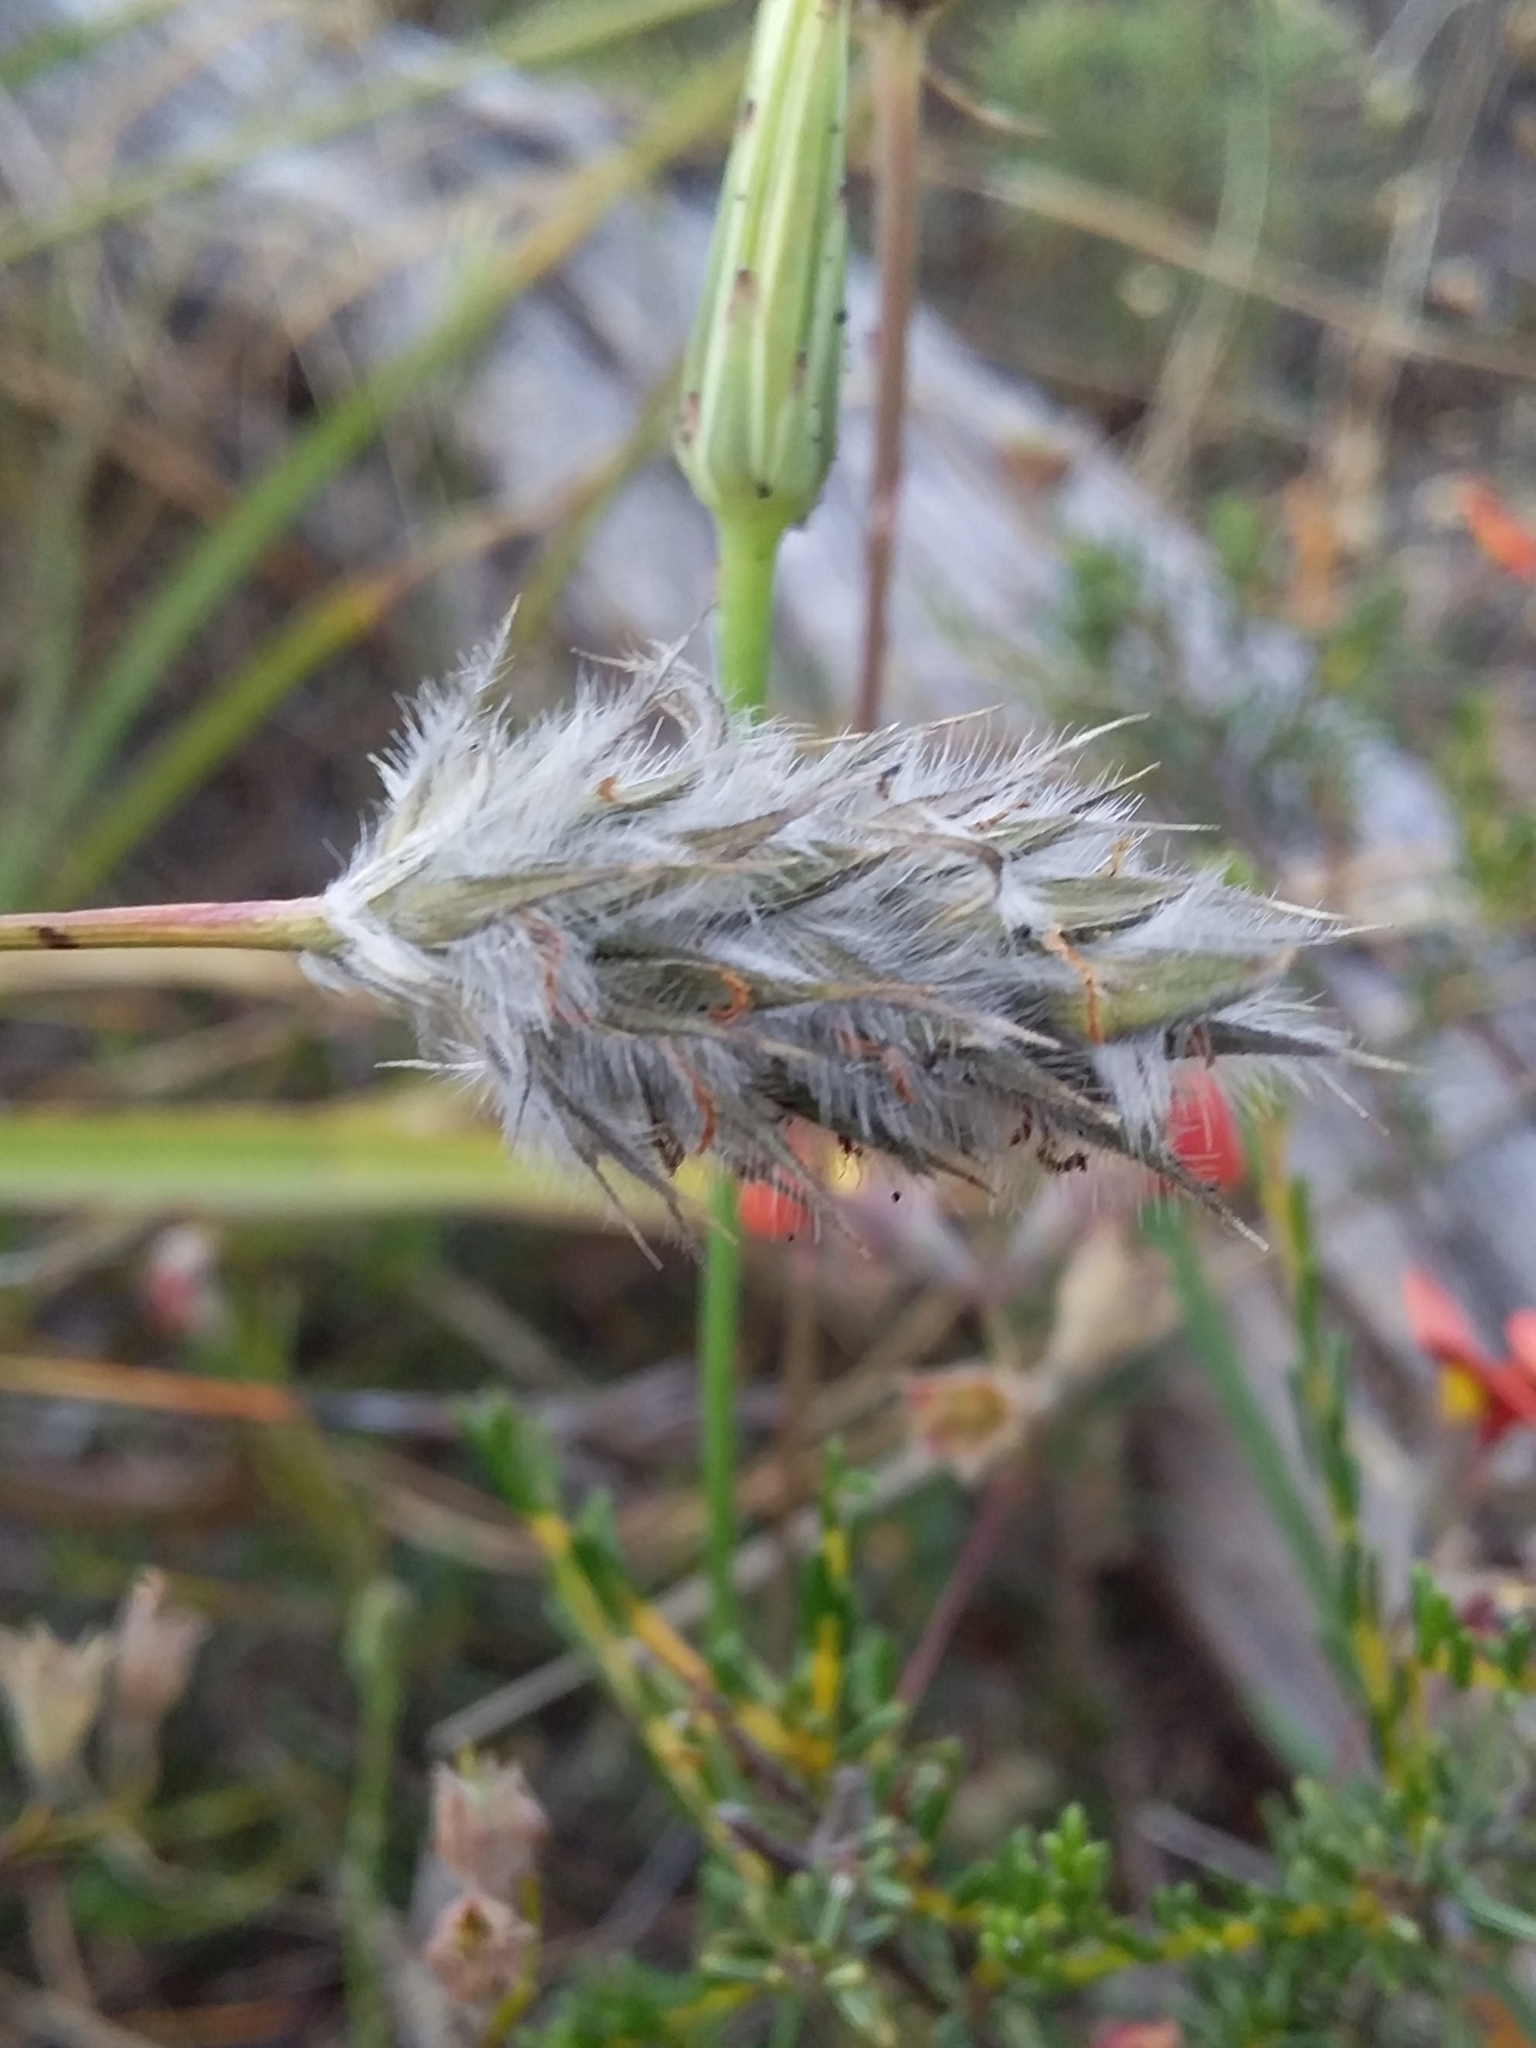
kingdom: Plantae
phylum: Tracheophyta
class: Liliopsida
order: Poales
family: Poaceae
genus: Neurachne
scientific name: Neurachne alopecuroidea
